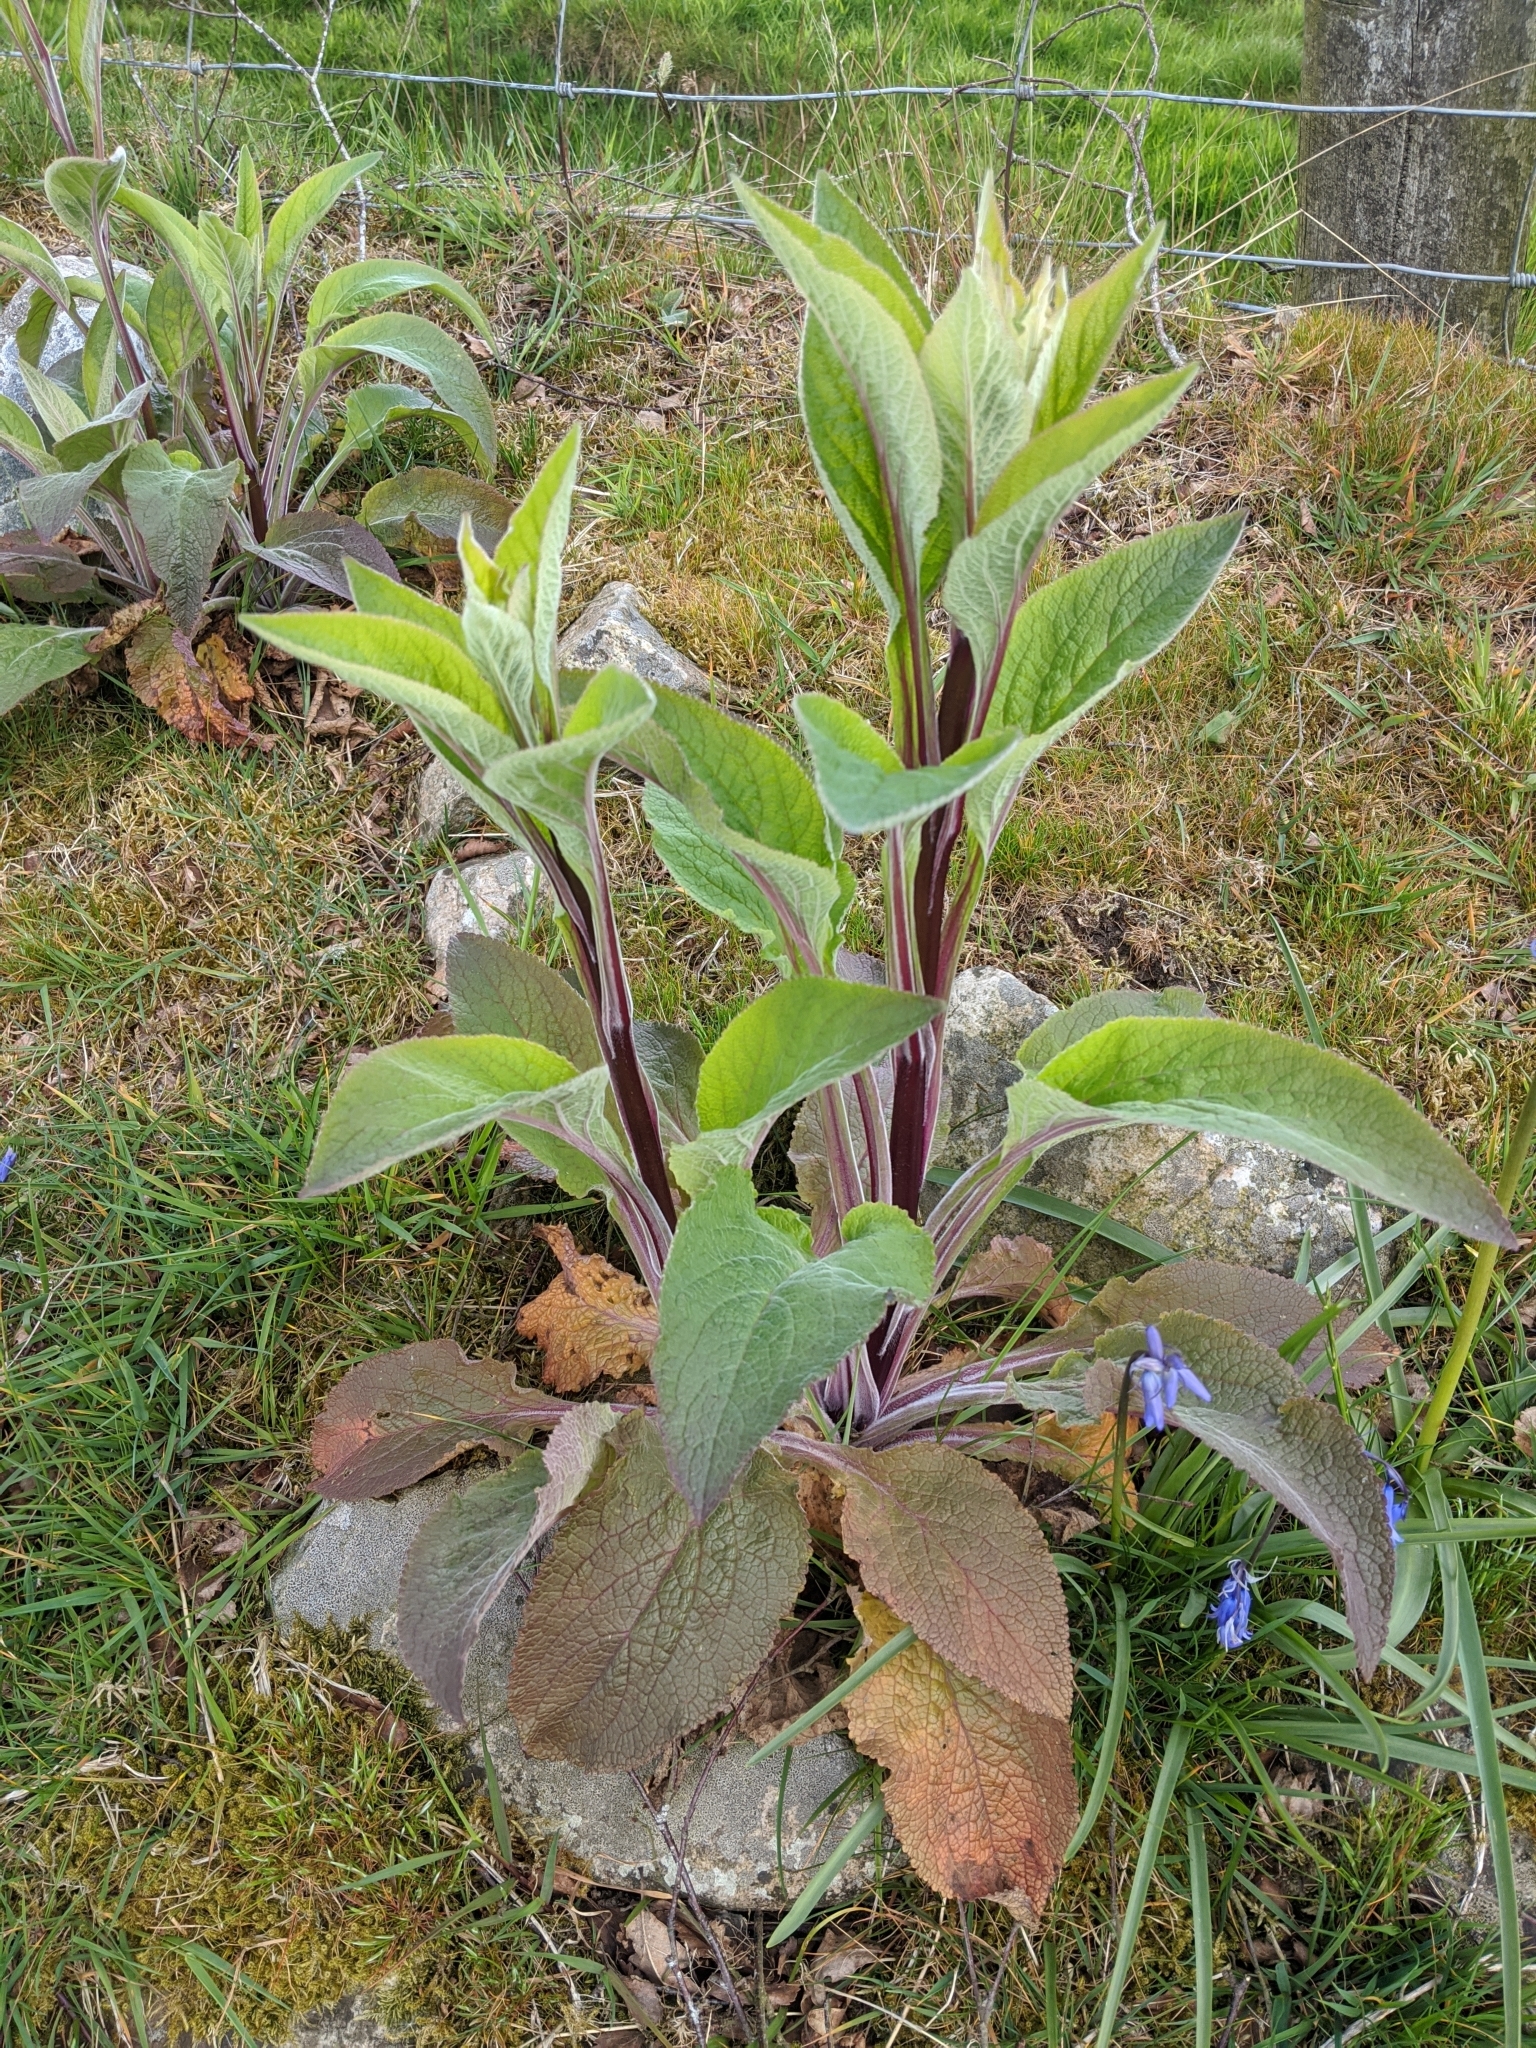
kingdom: Plantae
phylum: Tracheophyta
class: Magnoliopsida
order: Lamiales
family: Plantaginaceae
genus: Digitalis
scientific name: Digitalis purpurea
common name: Foxglove
